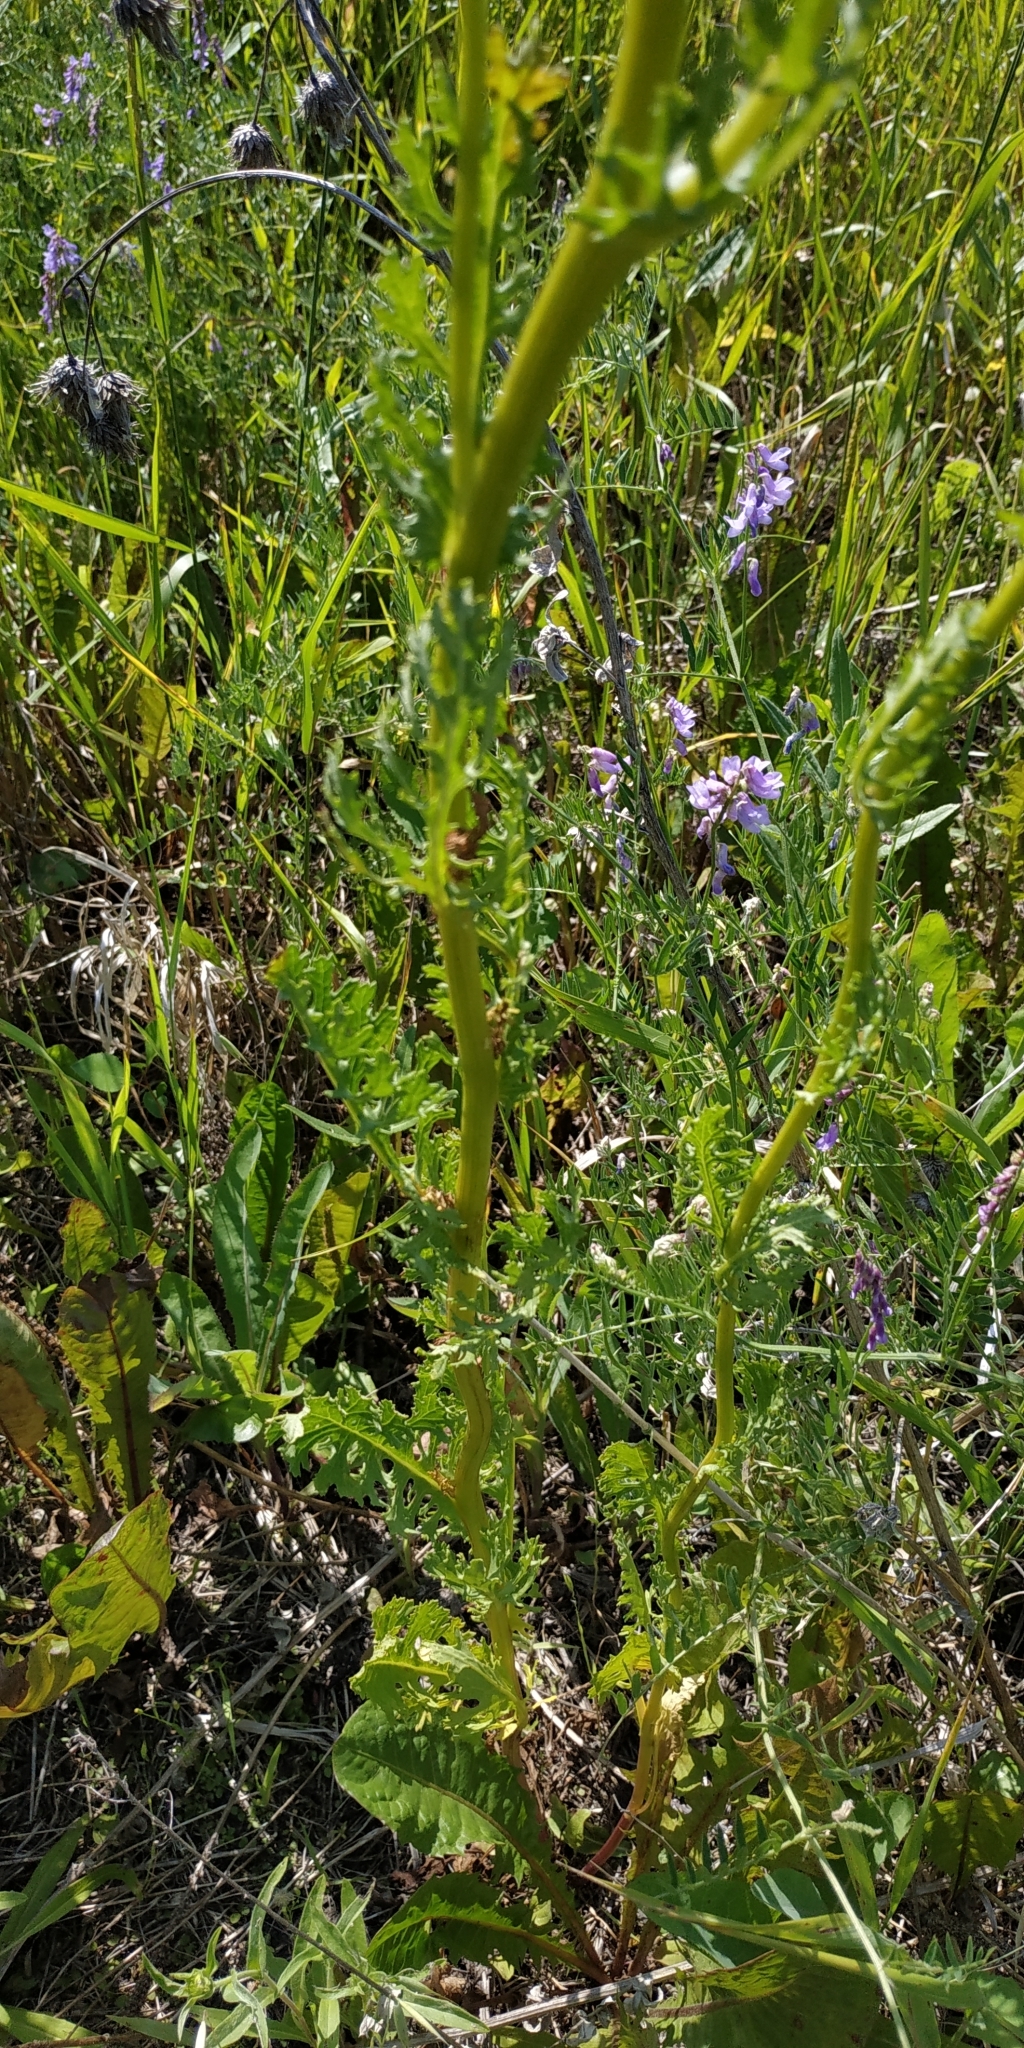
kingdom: Plantae
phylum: Tracheophyta
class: Magnoliopsida
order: Asterales
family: Asteraceae
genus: Jacobaea
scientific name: Jacobaea vulgaris
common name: Stinking willie
